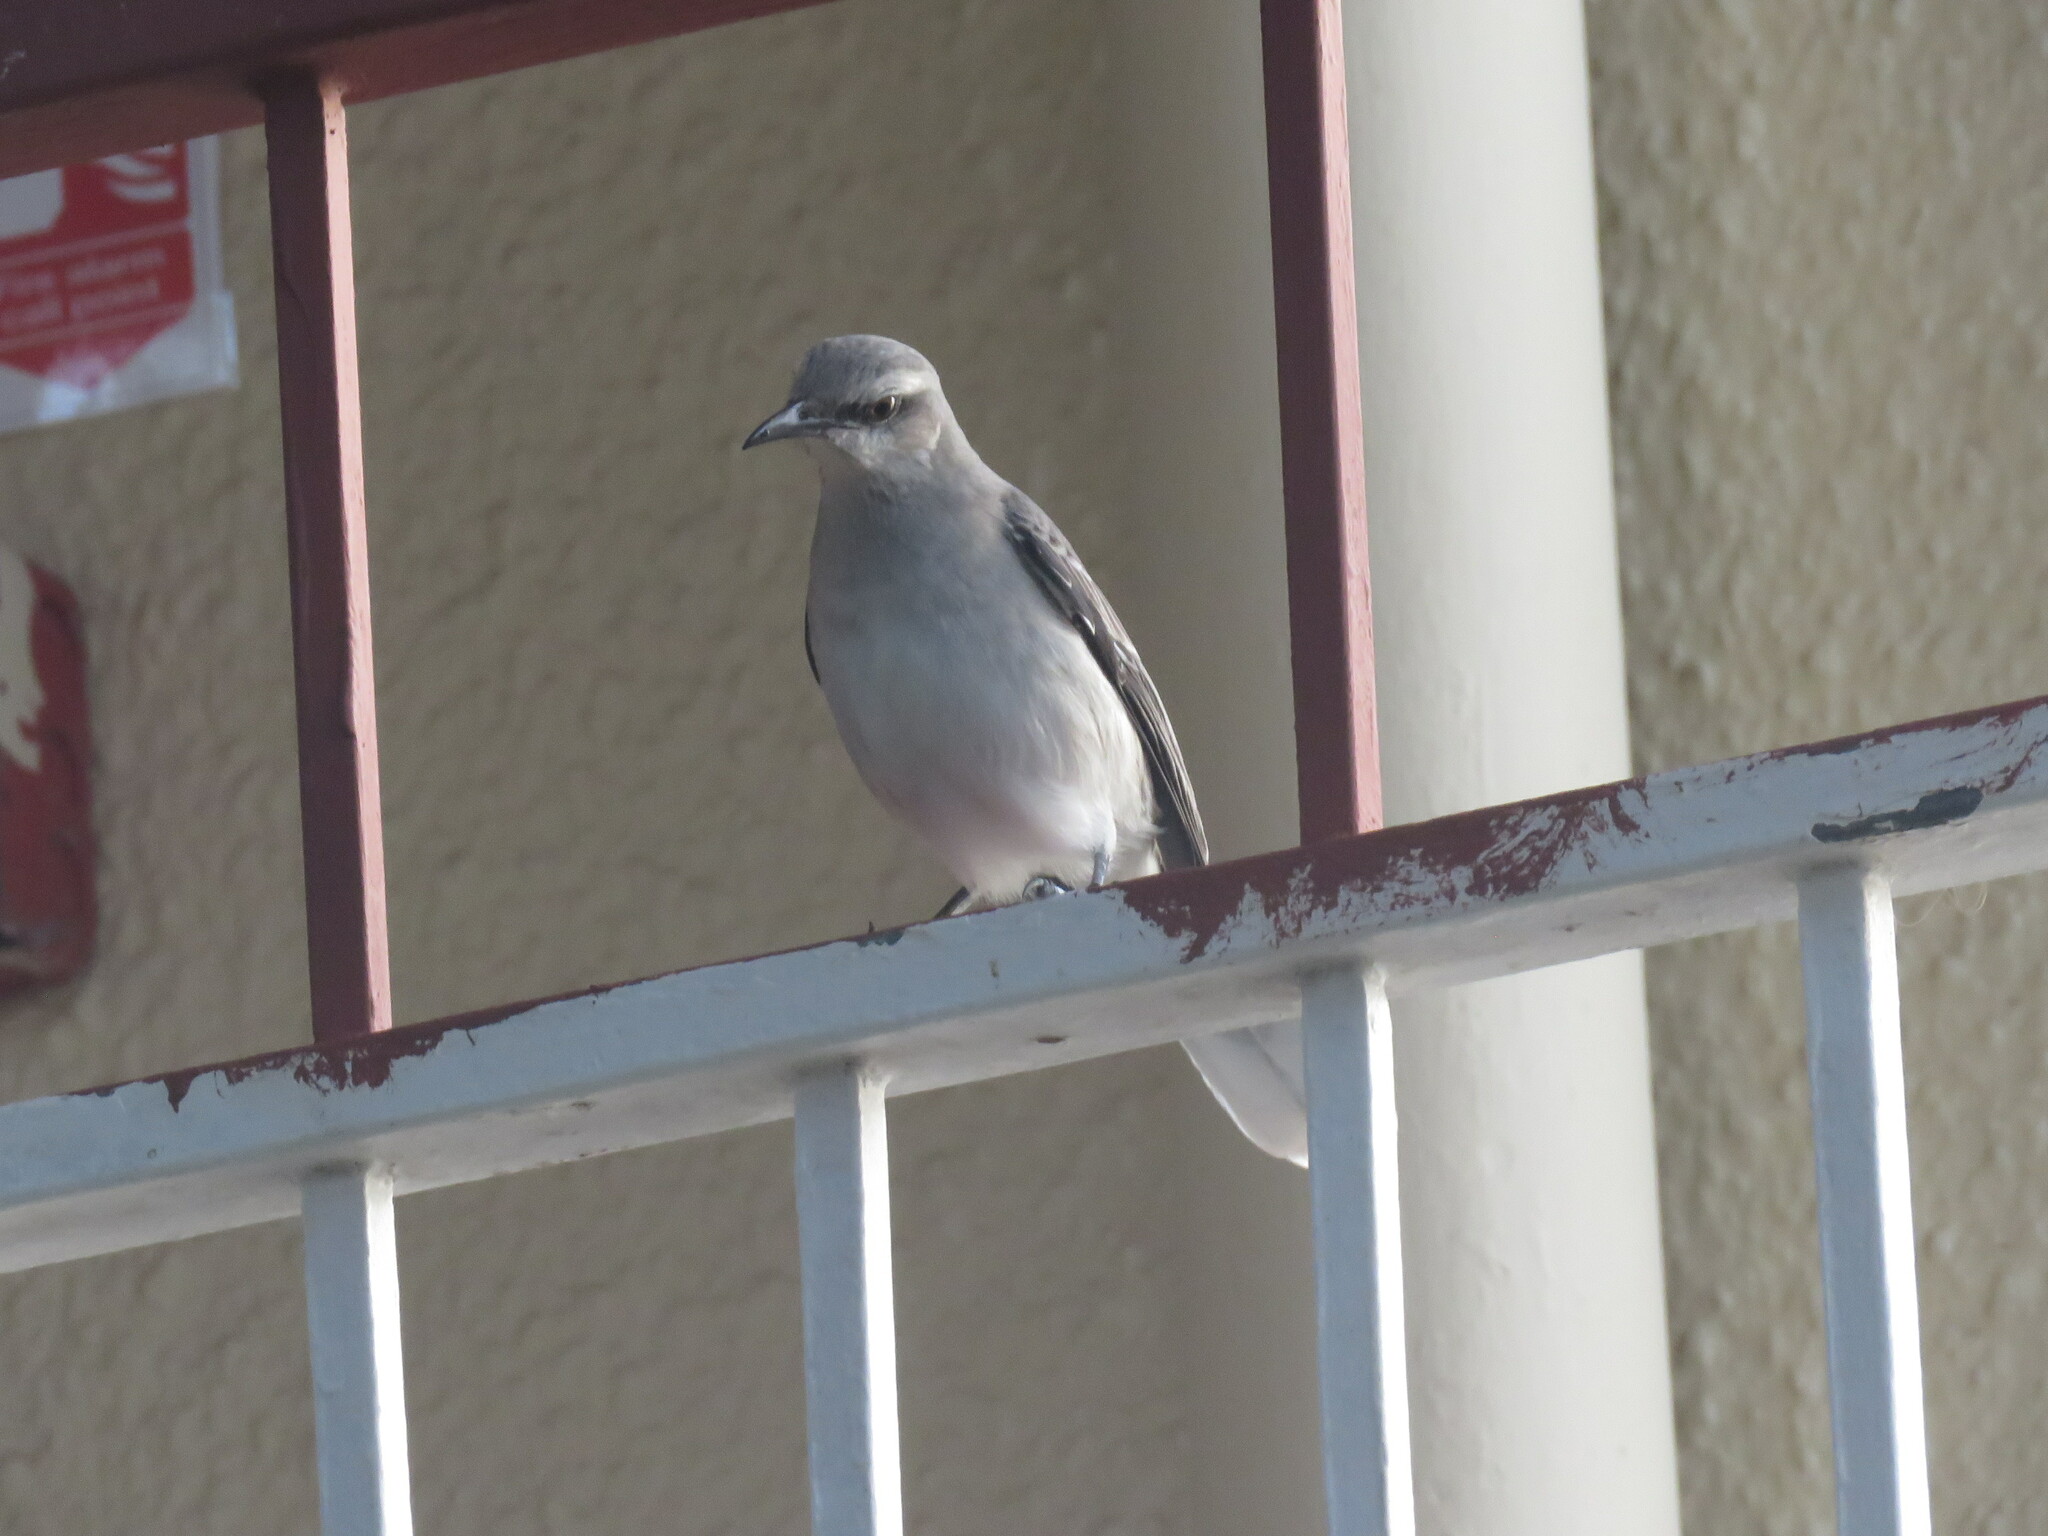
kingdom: Animalia
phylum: Chordata
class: Aves
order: Passeriformes
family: Mimidae
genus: Mimus
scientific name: Mimus gilvus
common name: Tropical mockingbird
